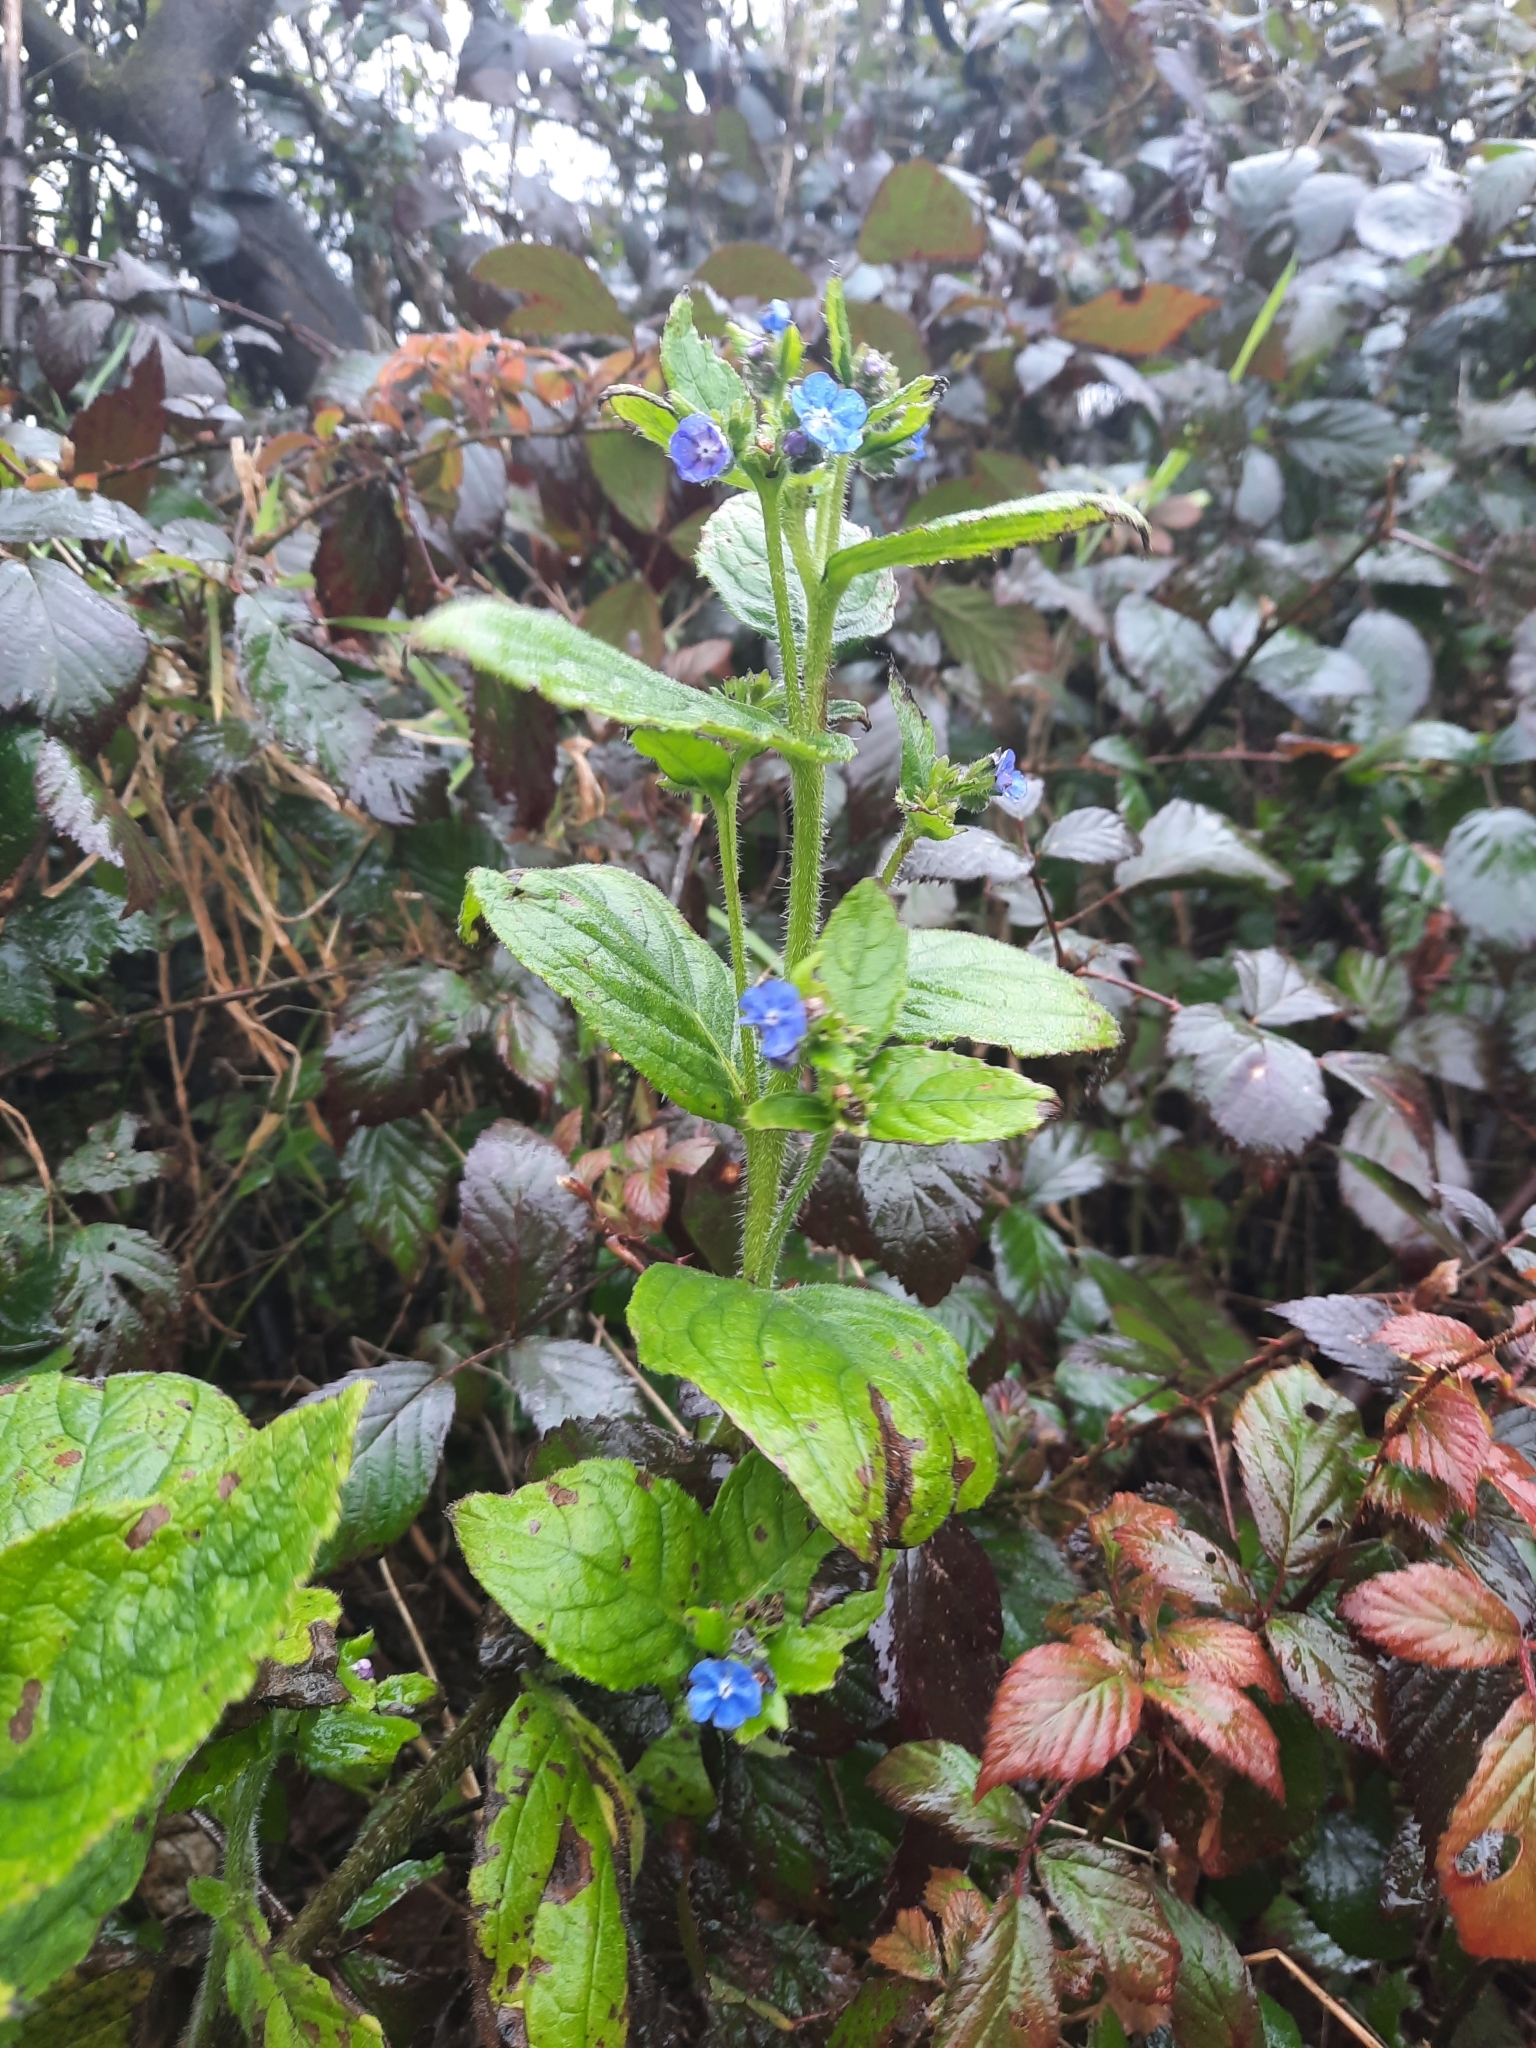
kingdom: Plantae
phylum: Tracheophyta
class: Magnoliopsida
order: Boraginales
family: Boraginaceae
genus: Pentaglottis
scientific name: Pentaglottis sempervirens
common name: Green alkanet
